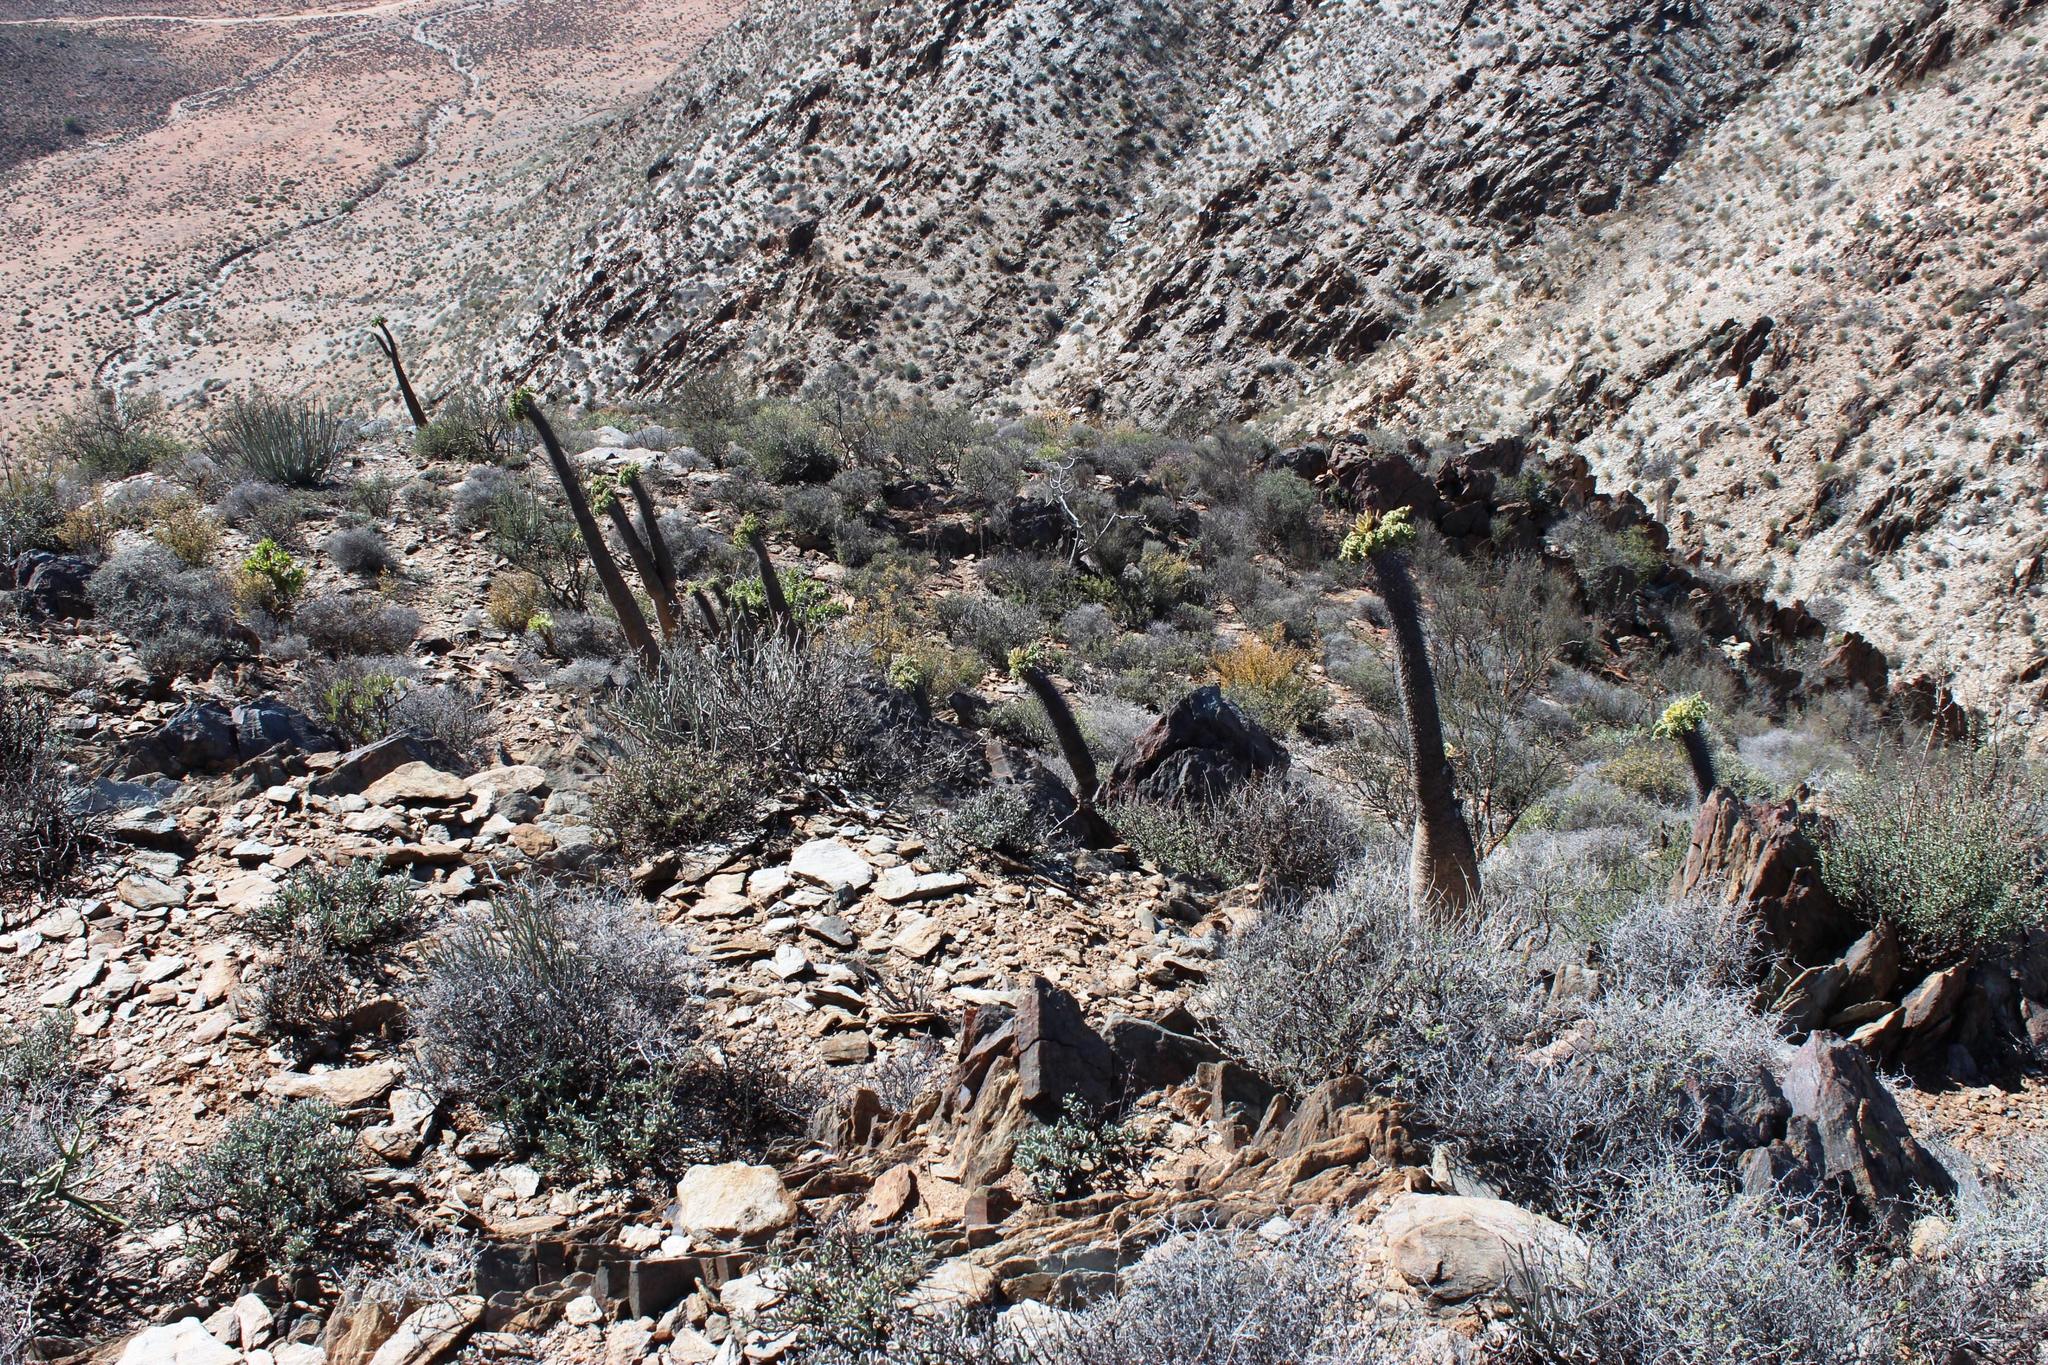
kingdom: Plantae
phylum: Tracheophyta
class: Magnoliopsida
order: Gentianales
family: Apocynaceae
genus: Pachypodium
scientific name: Pachypodium namaquanum
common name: Elephant's trunk
